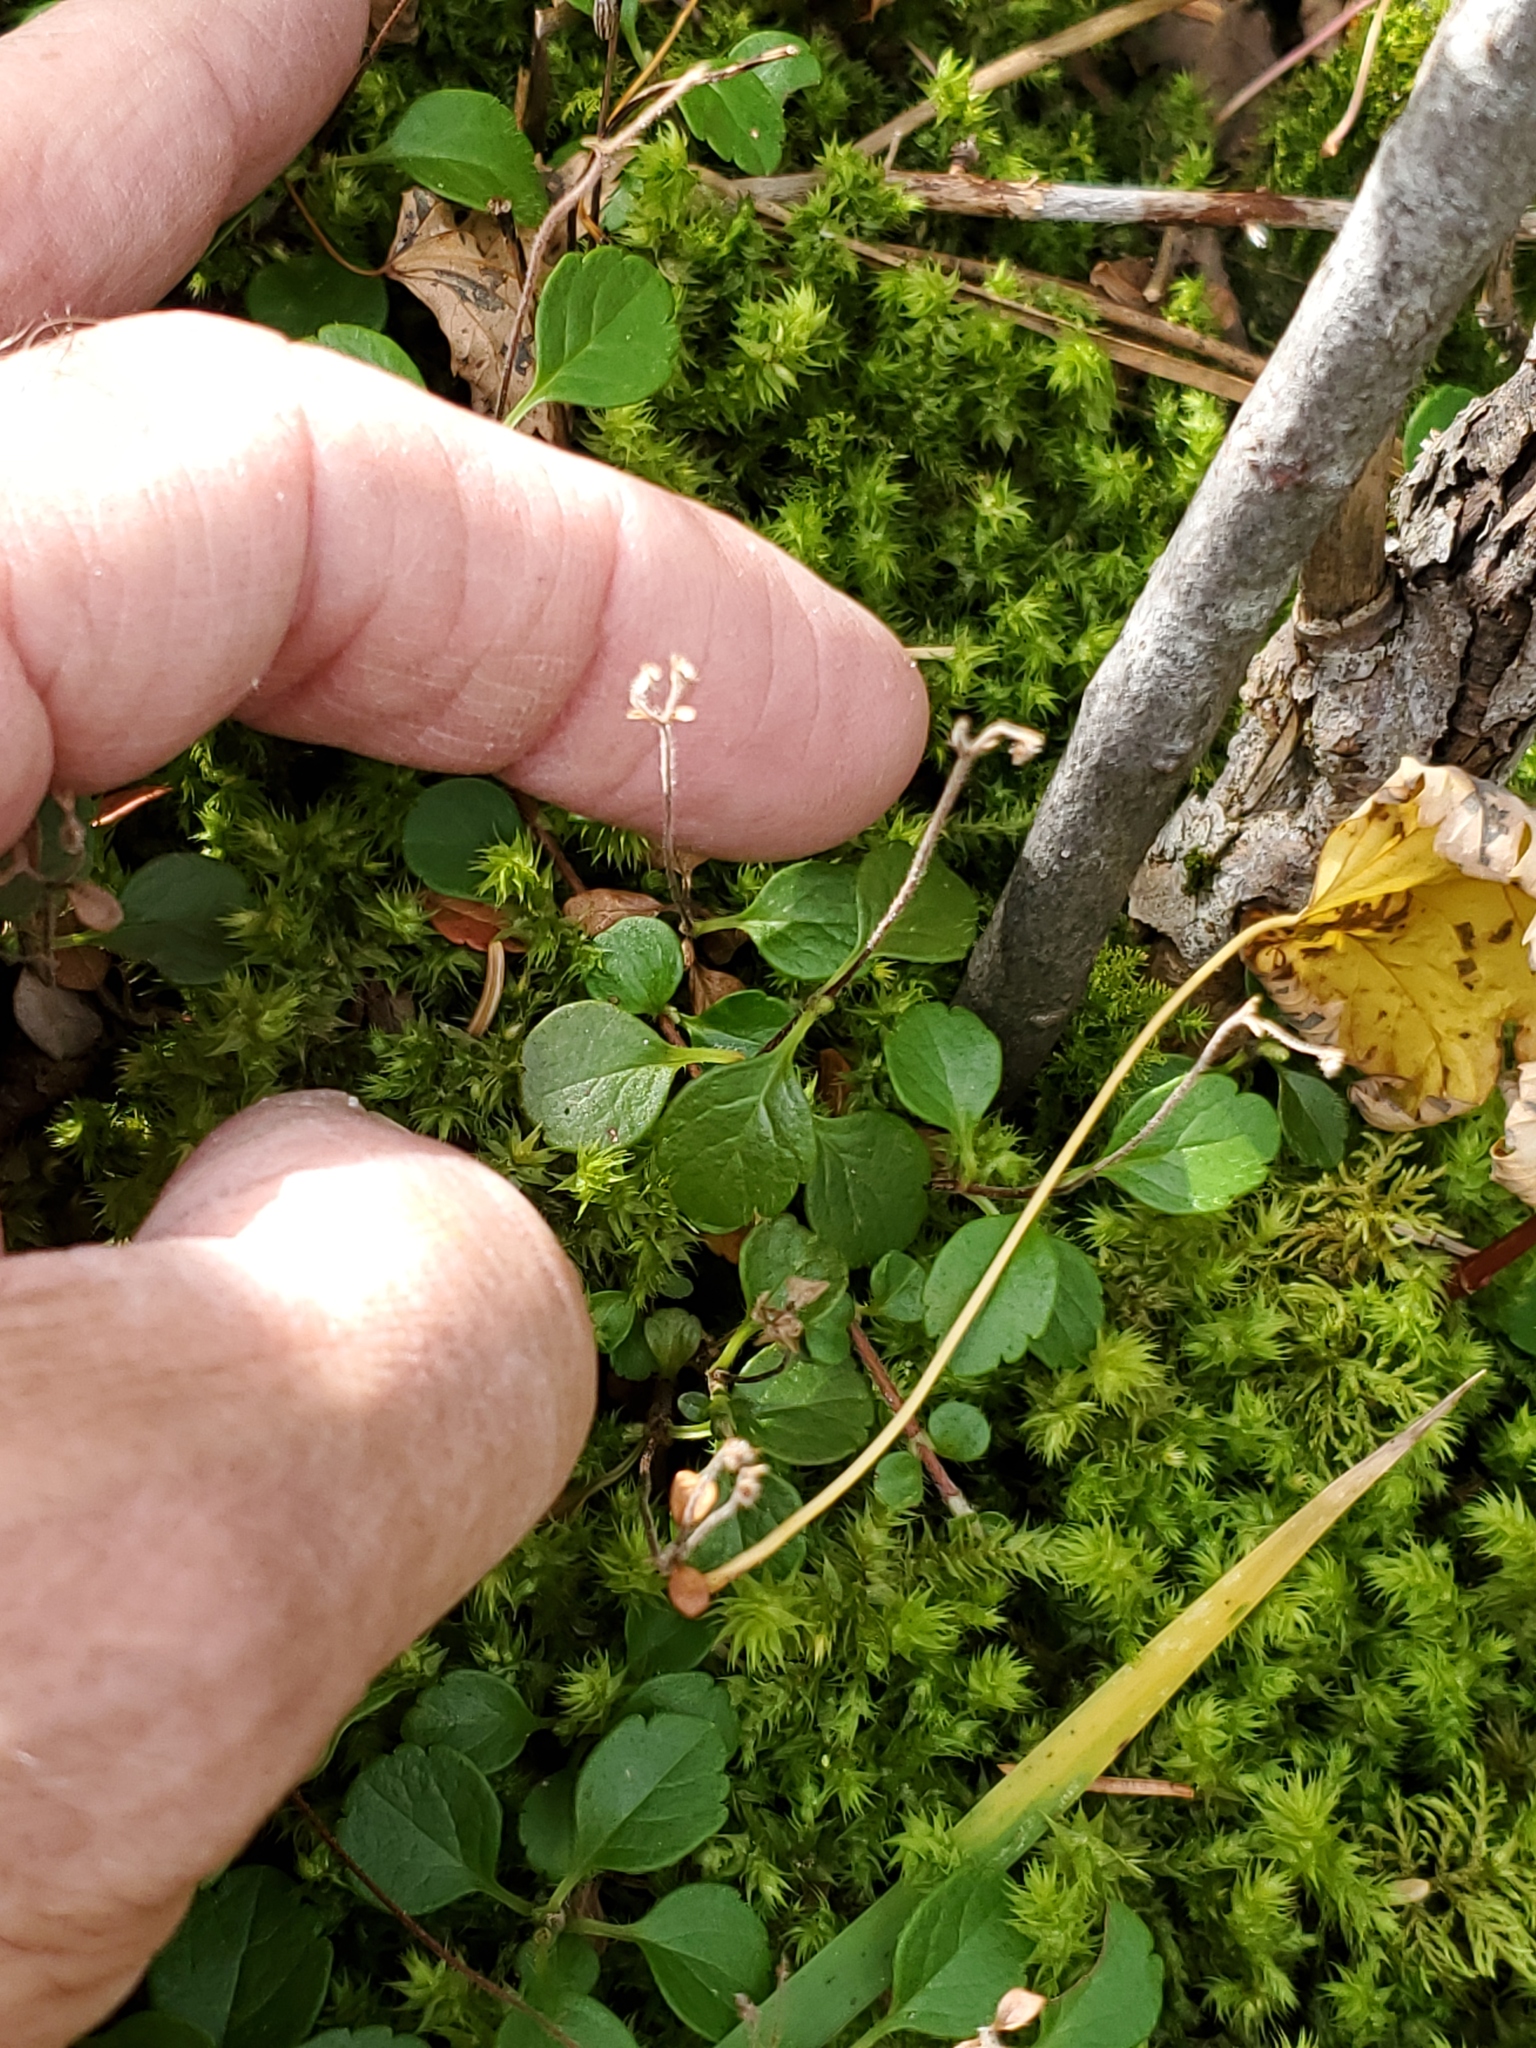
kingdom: Plantae
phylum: Tracheophyta
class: Magnoliopsida
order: Dipsacales
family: Caprifoliaceae
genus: Linnaea
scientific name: Linnaea borealis
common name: Twinflower
